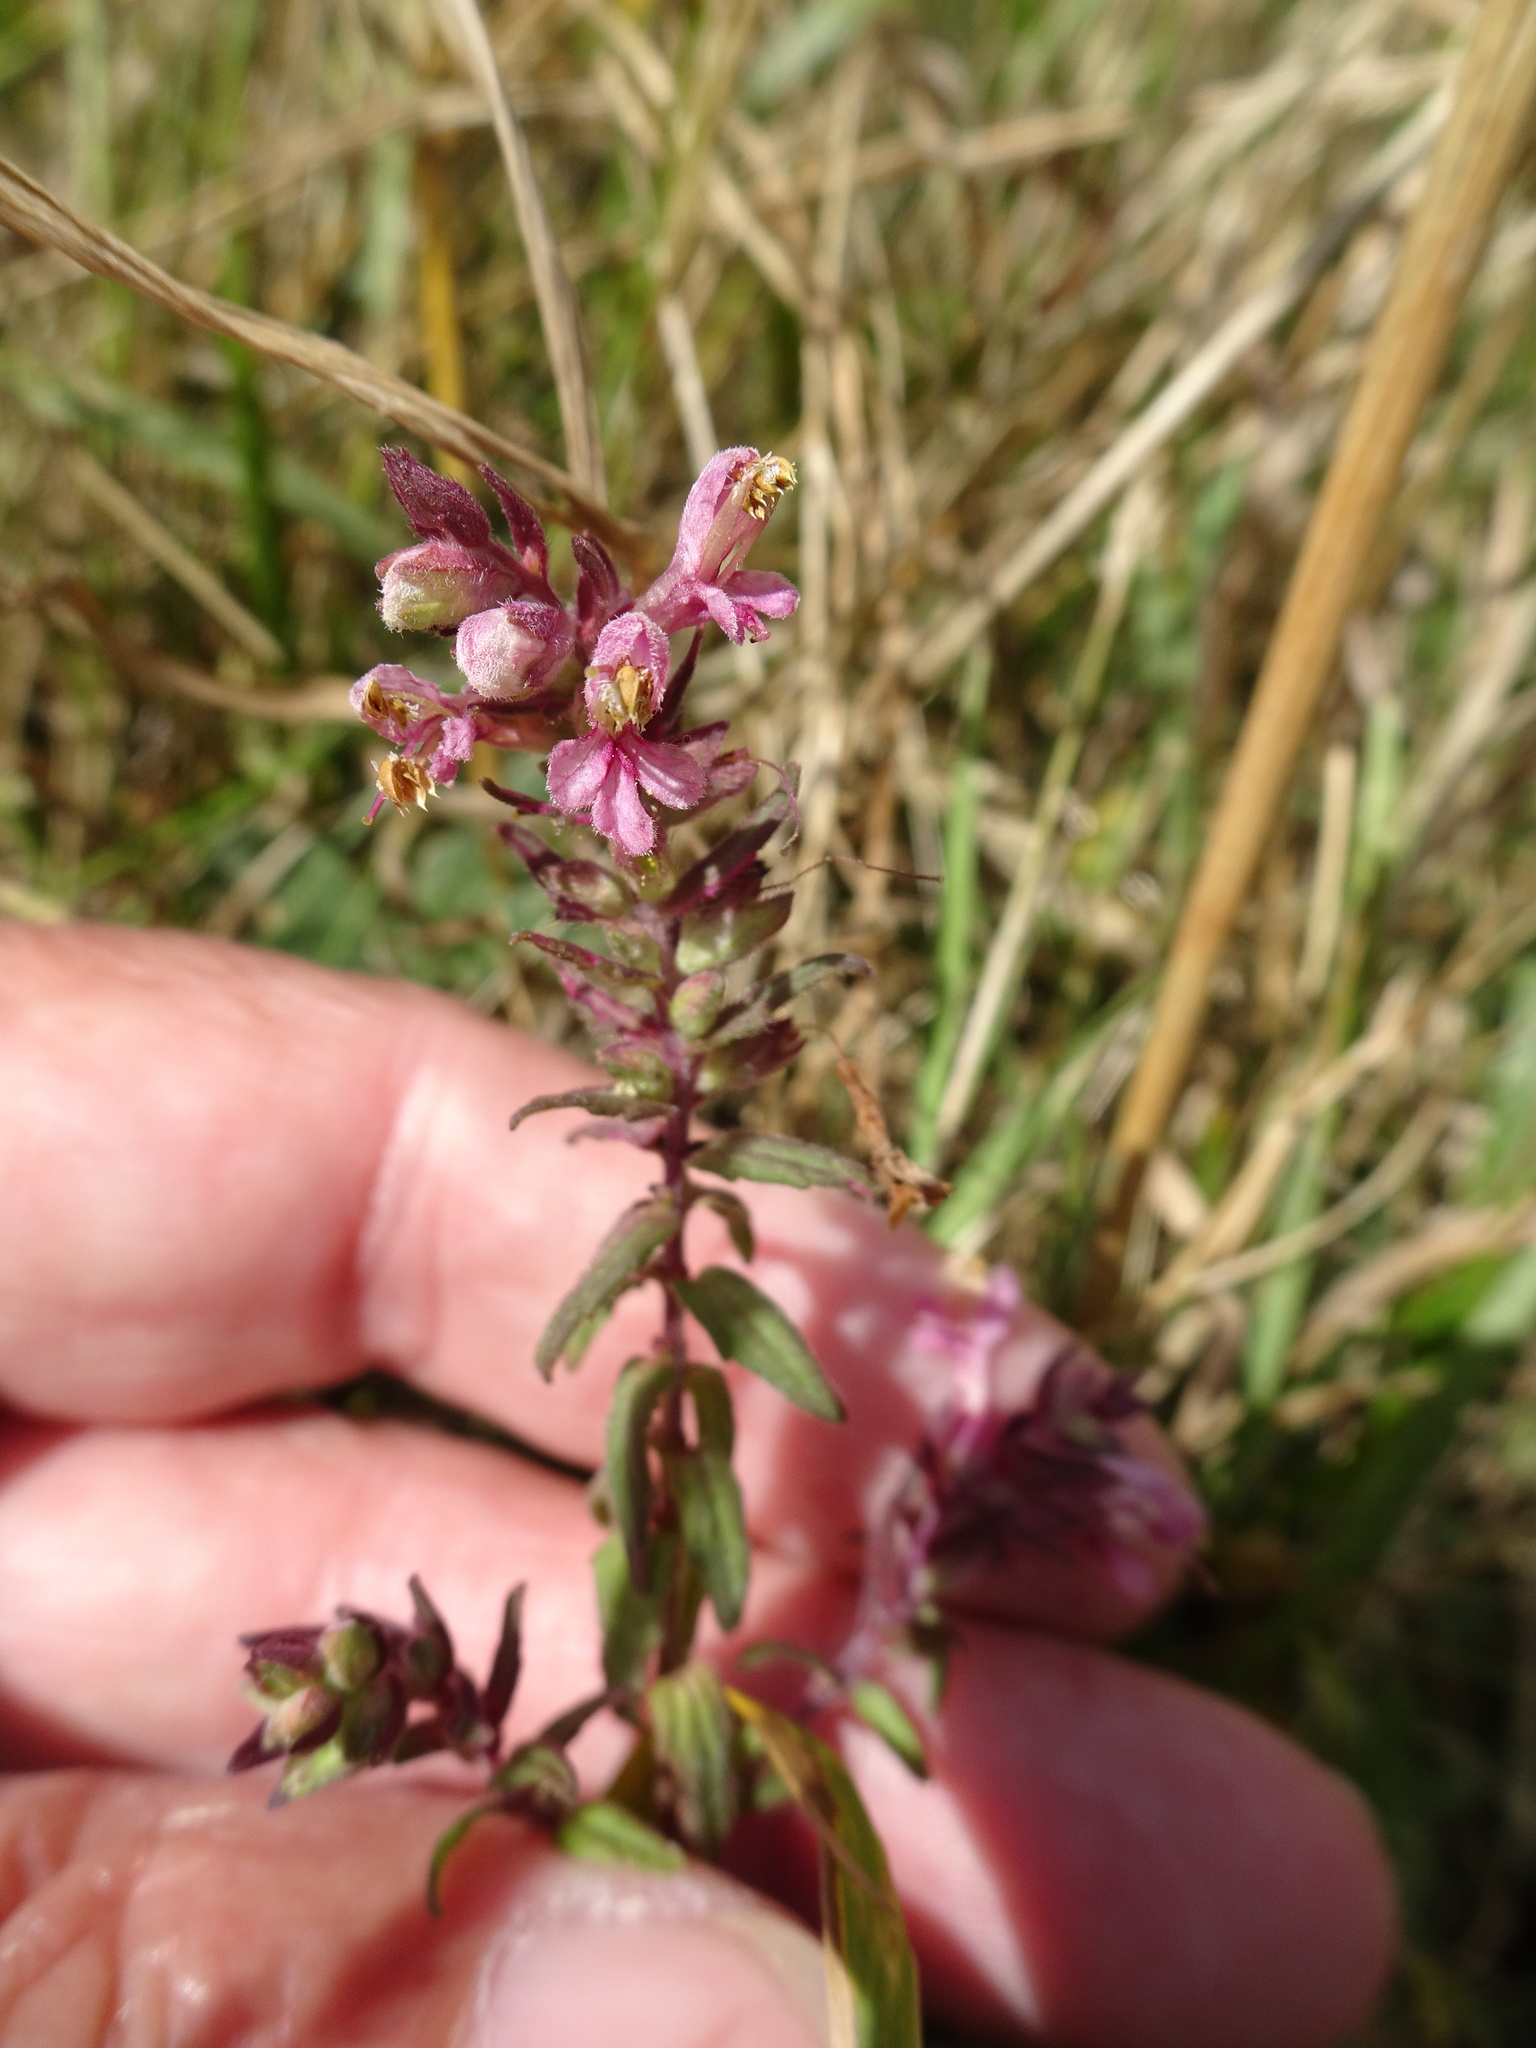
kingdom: Plantae
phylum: Tracheophyta
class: Magnoliopsida
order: Lamiales
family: Orobanchaceae
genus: Odontites
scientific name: Odontites vulgaris
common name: Broomrape
